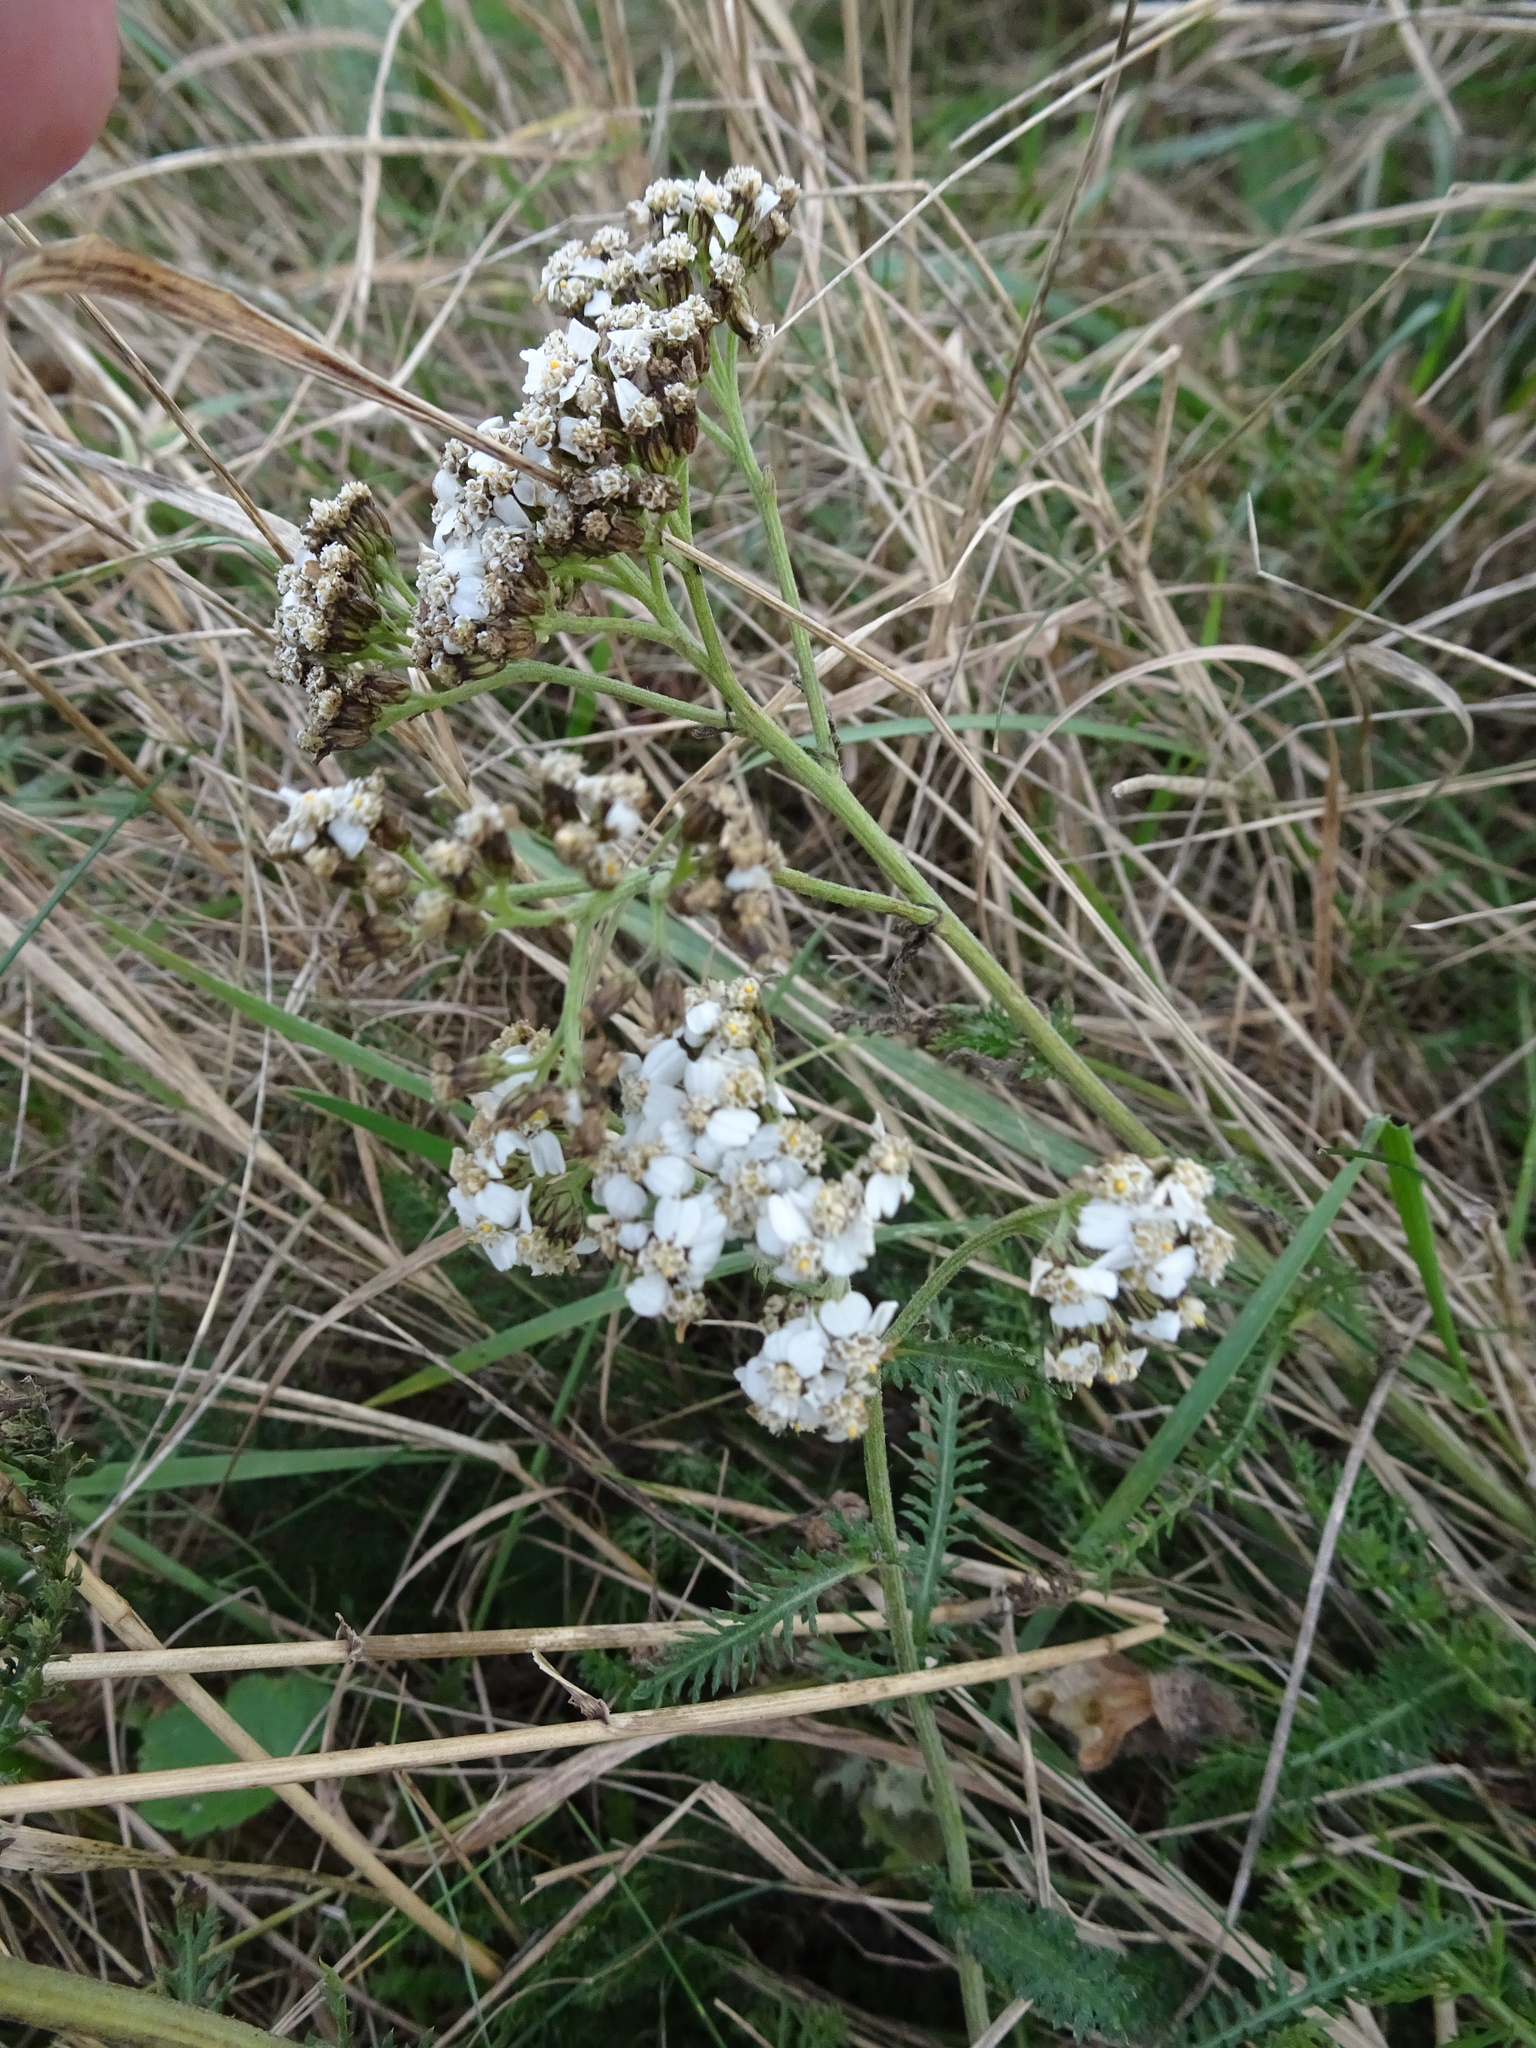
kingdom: Plantae
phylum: Tracheophyta
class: Magnoliopsida
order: Asterales
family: Asteraceae
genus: Achillea
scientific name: Achillea millefolium
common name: Yarrow
